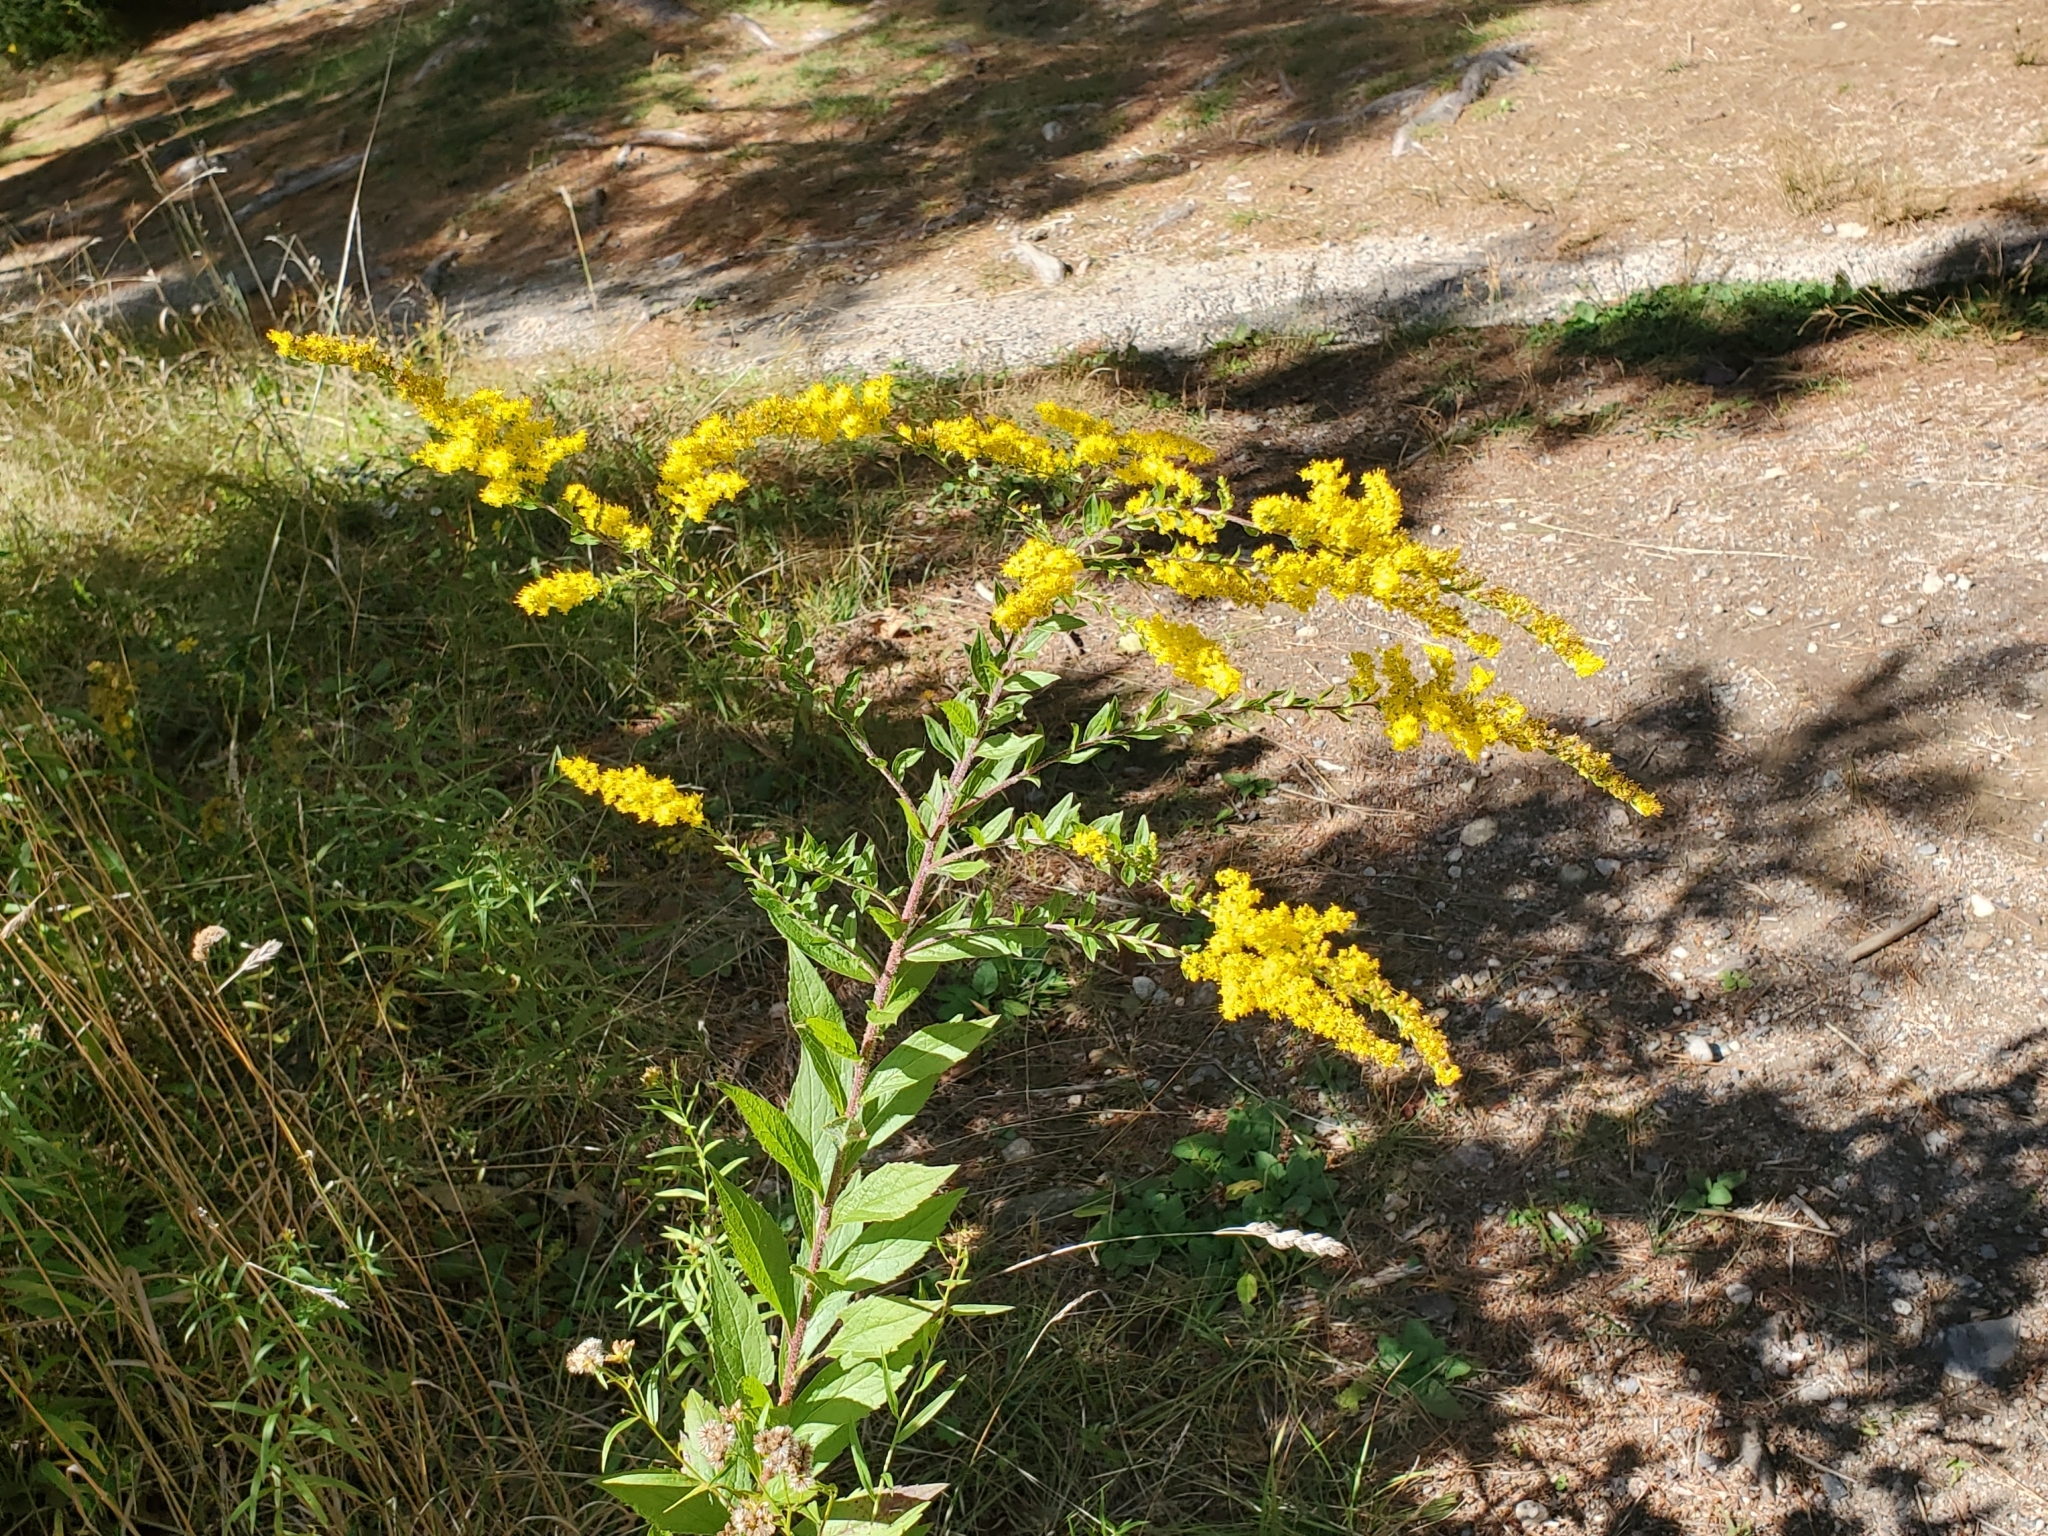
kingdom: Plantae
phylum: Tracheophyta
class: Magnoliopsida
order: Asterales
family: Asteraceae
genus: Solidago
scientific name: Solidago rugosa
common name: Rough-stemmed goldenrod
